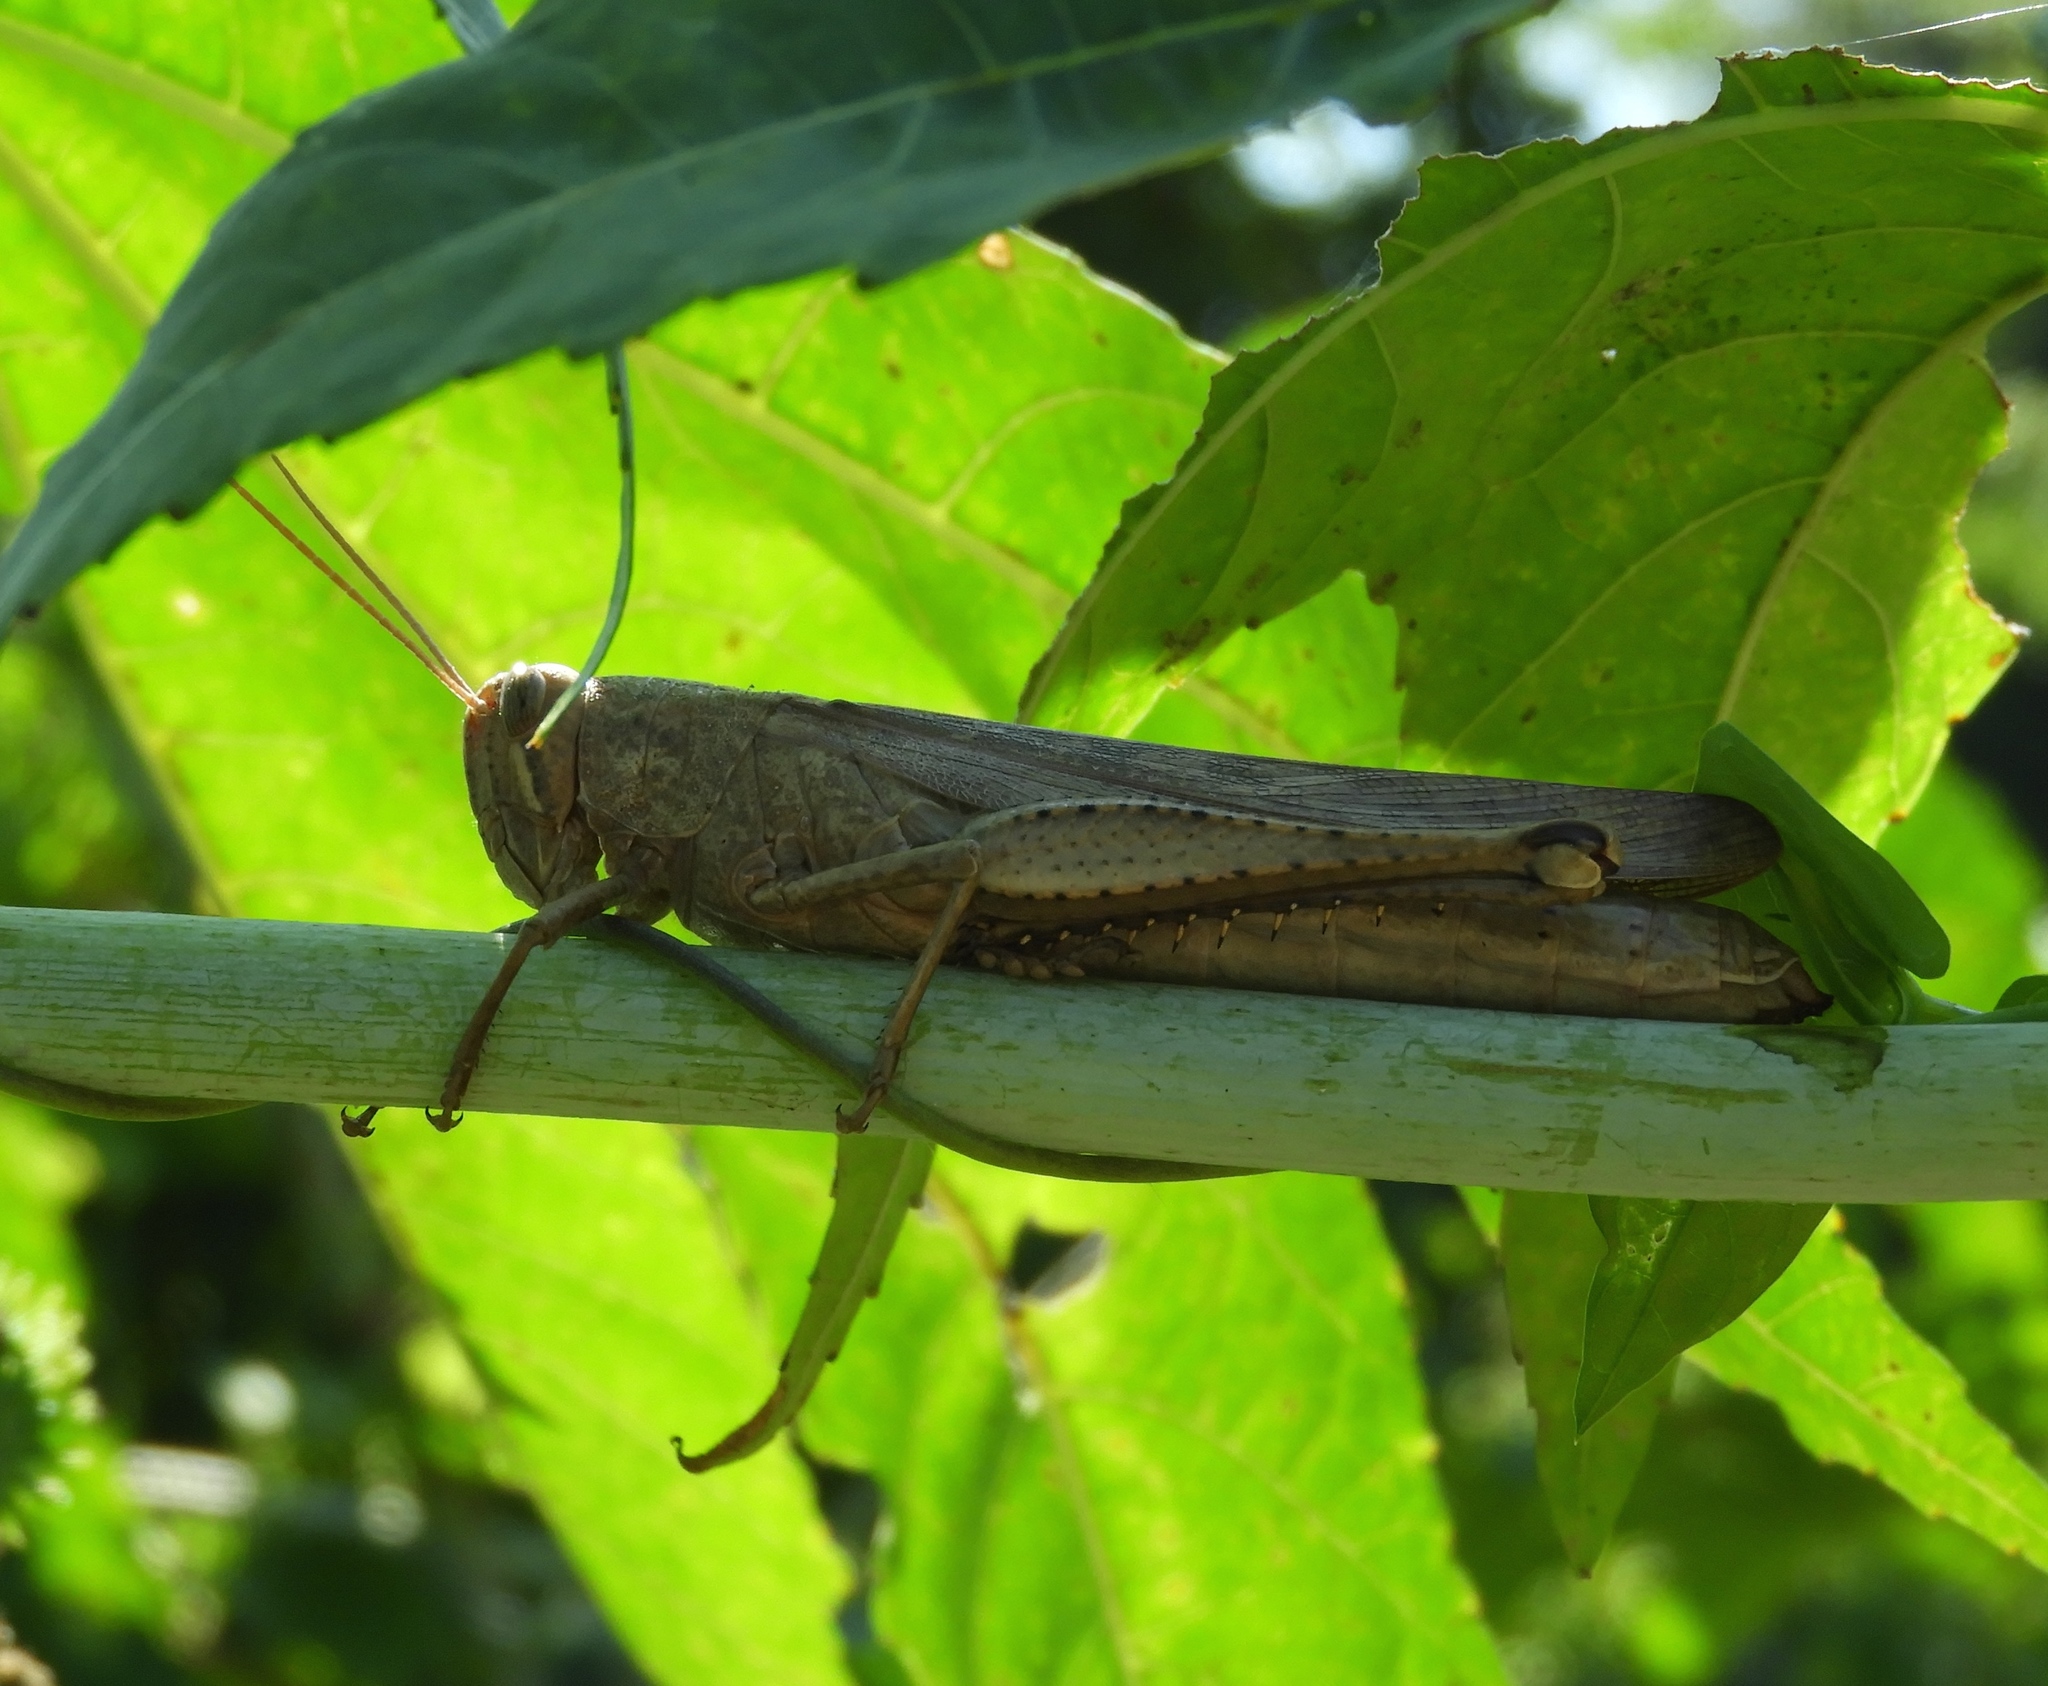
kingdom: Animalia
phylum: Arthropoda
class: Insecta
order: Orthoptera
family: Acrididae
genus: Schistocerca
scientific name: Schistocerca camerata
